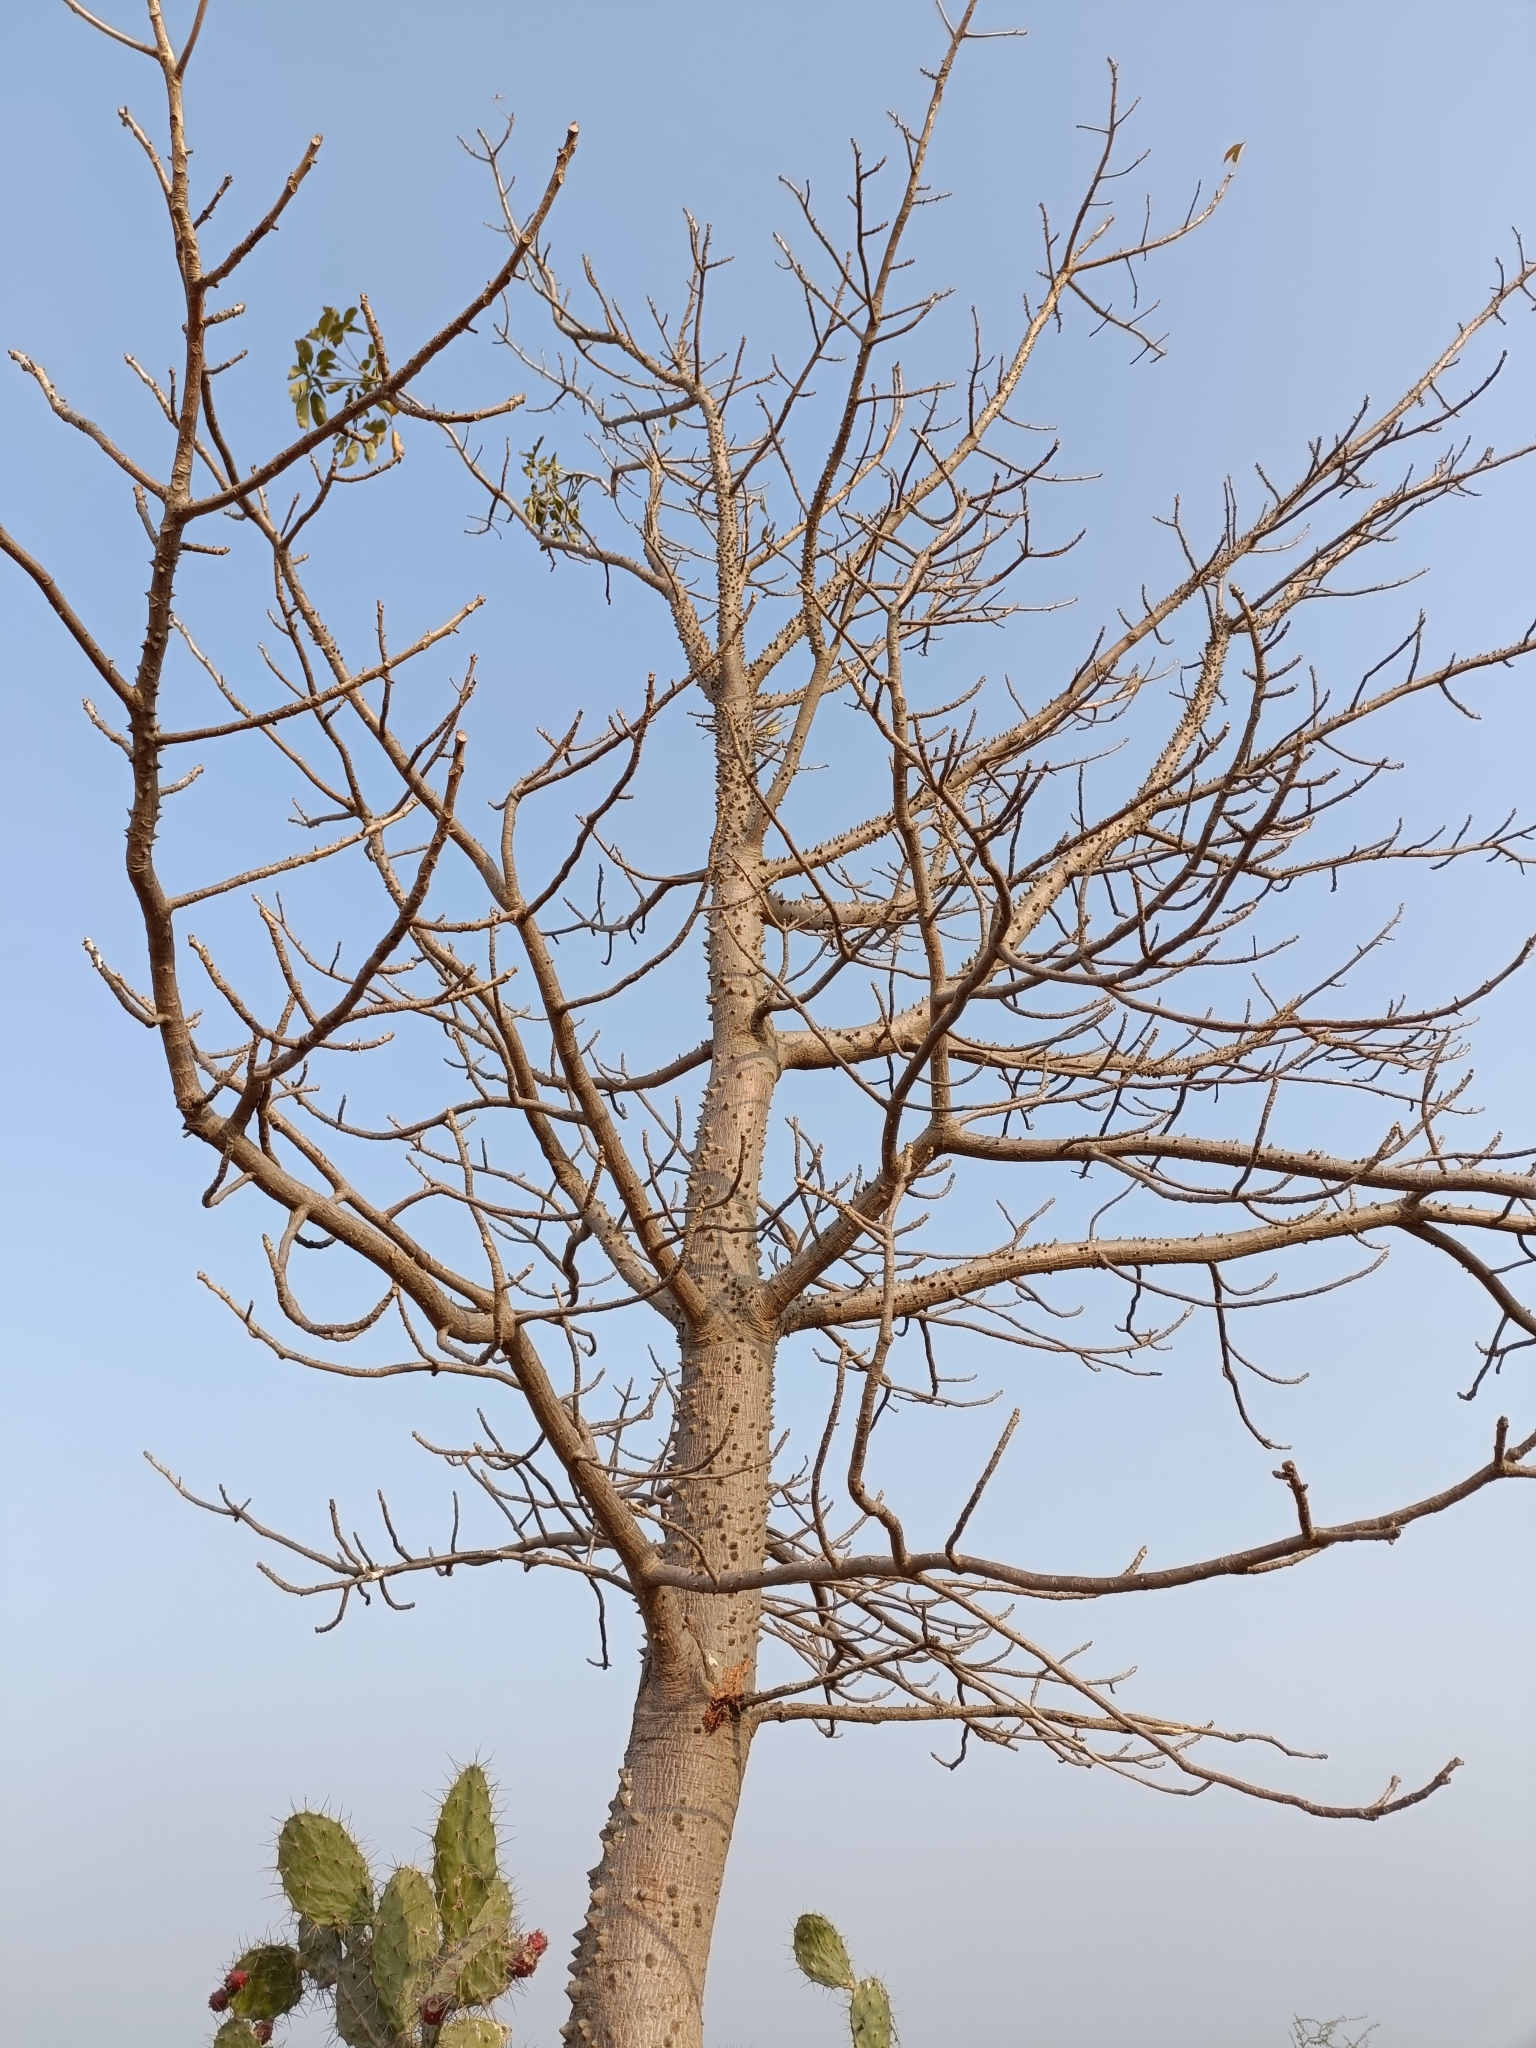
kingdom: Plantae
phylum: Tracheophyta
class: Magnoliopsida
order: Malvales
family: Malvaceae
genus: Bombax
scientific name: Bombax ceiba
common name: Northern-cottonwood
